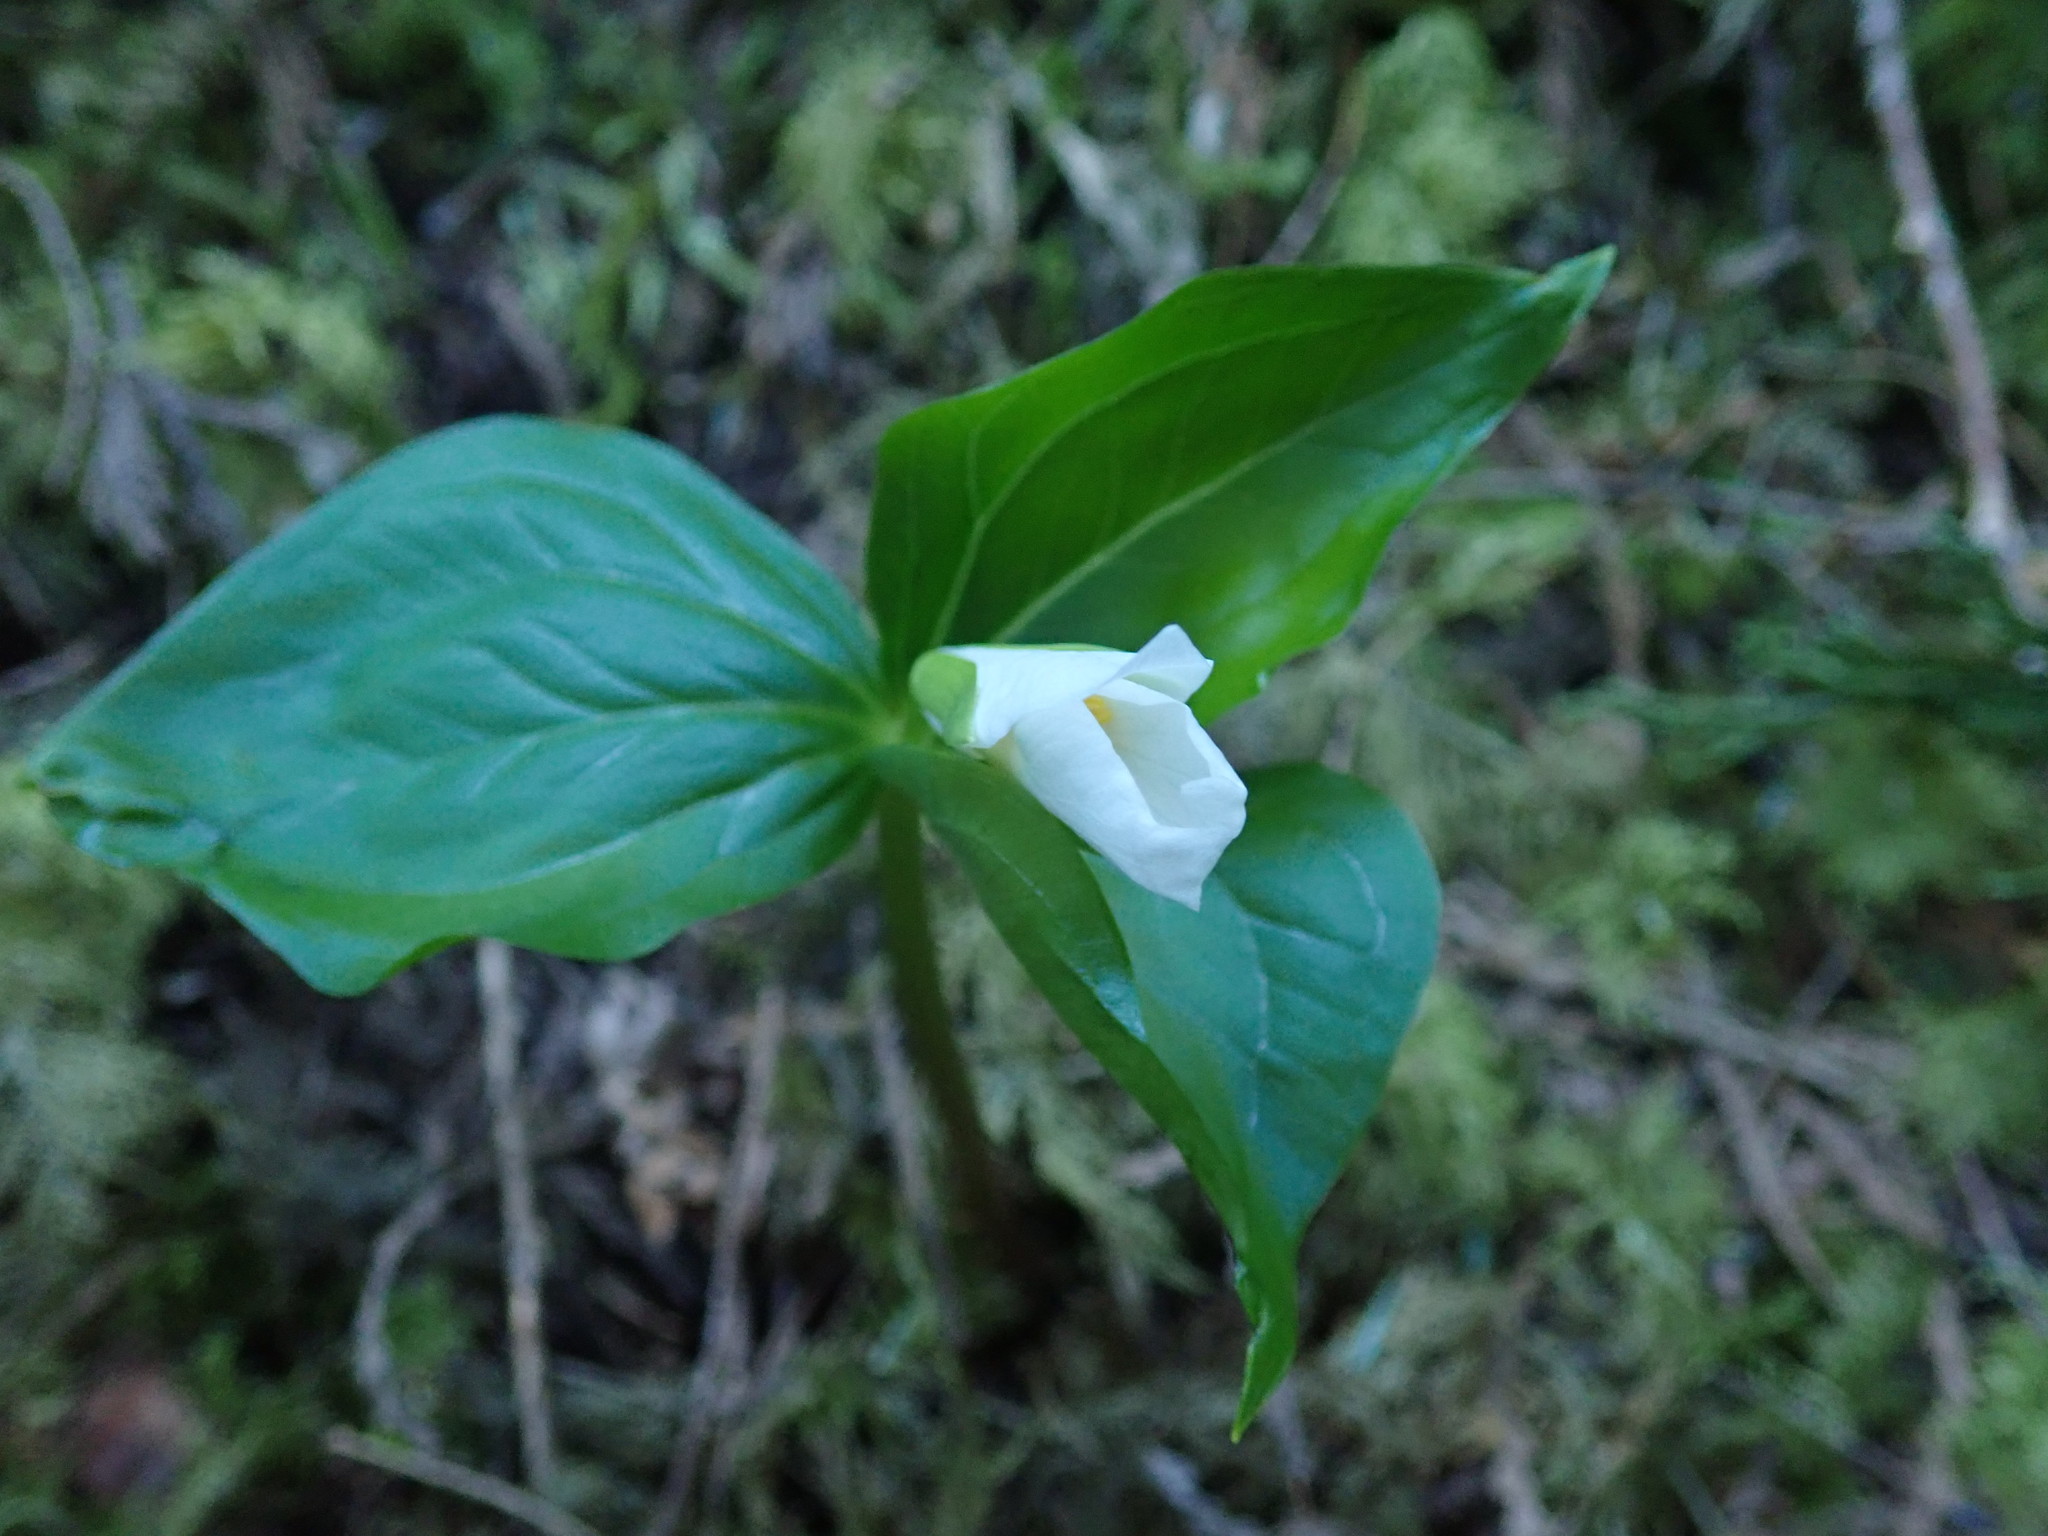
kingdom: Plantae
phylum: Tracheophyta
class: Liliopsida
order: Liliales
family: Melanthiaceae
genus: Trillium
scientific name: Trillium ovatum
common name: Pacific trillium
